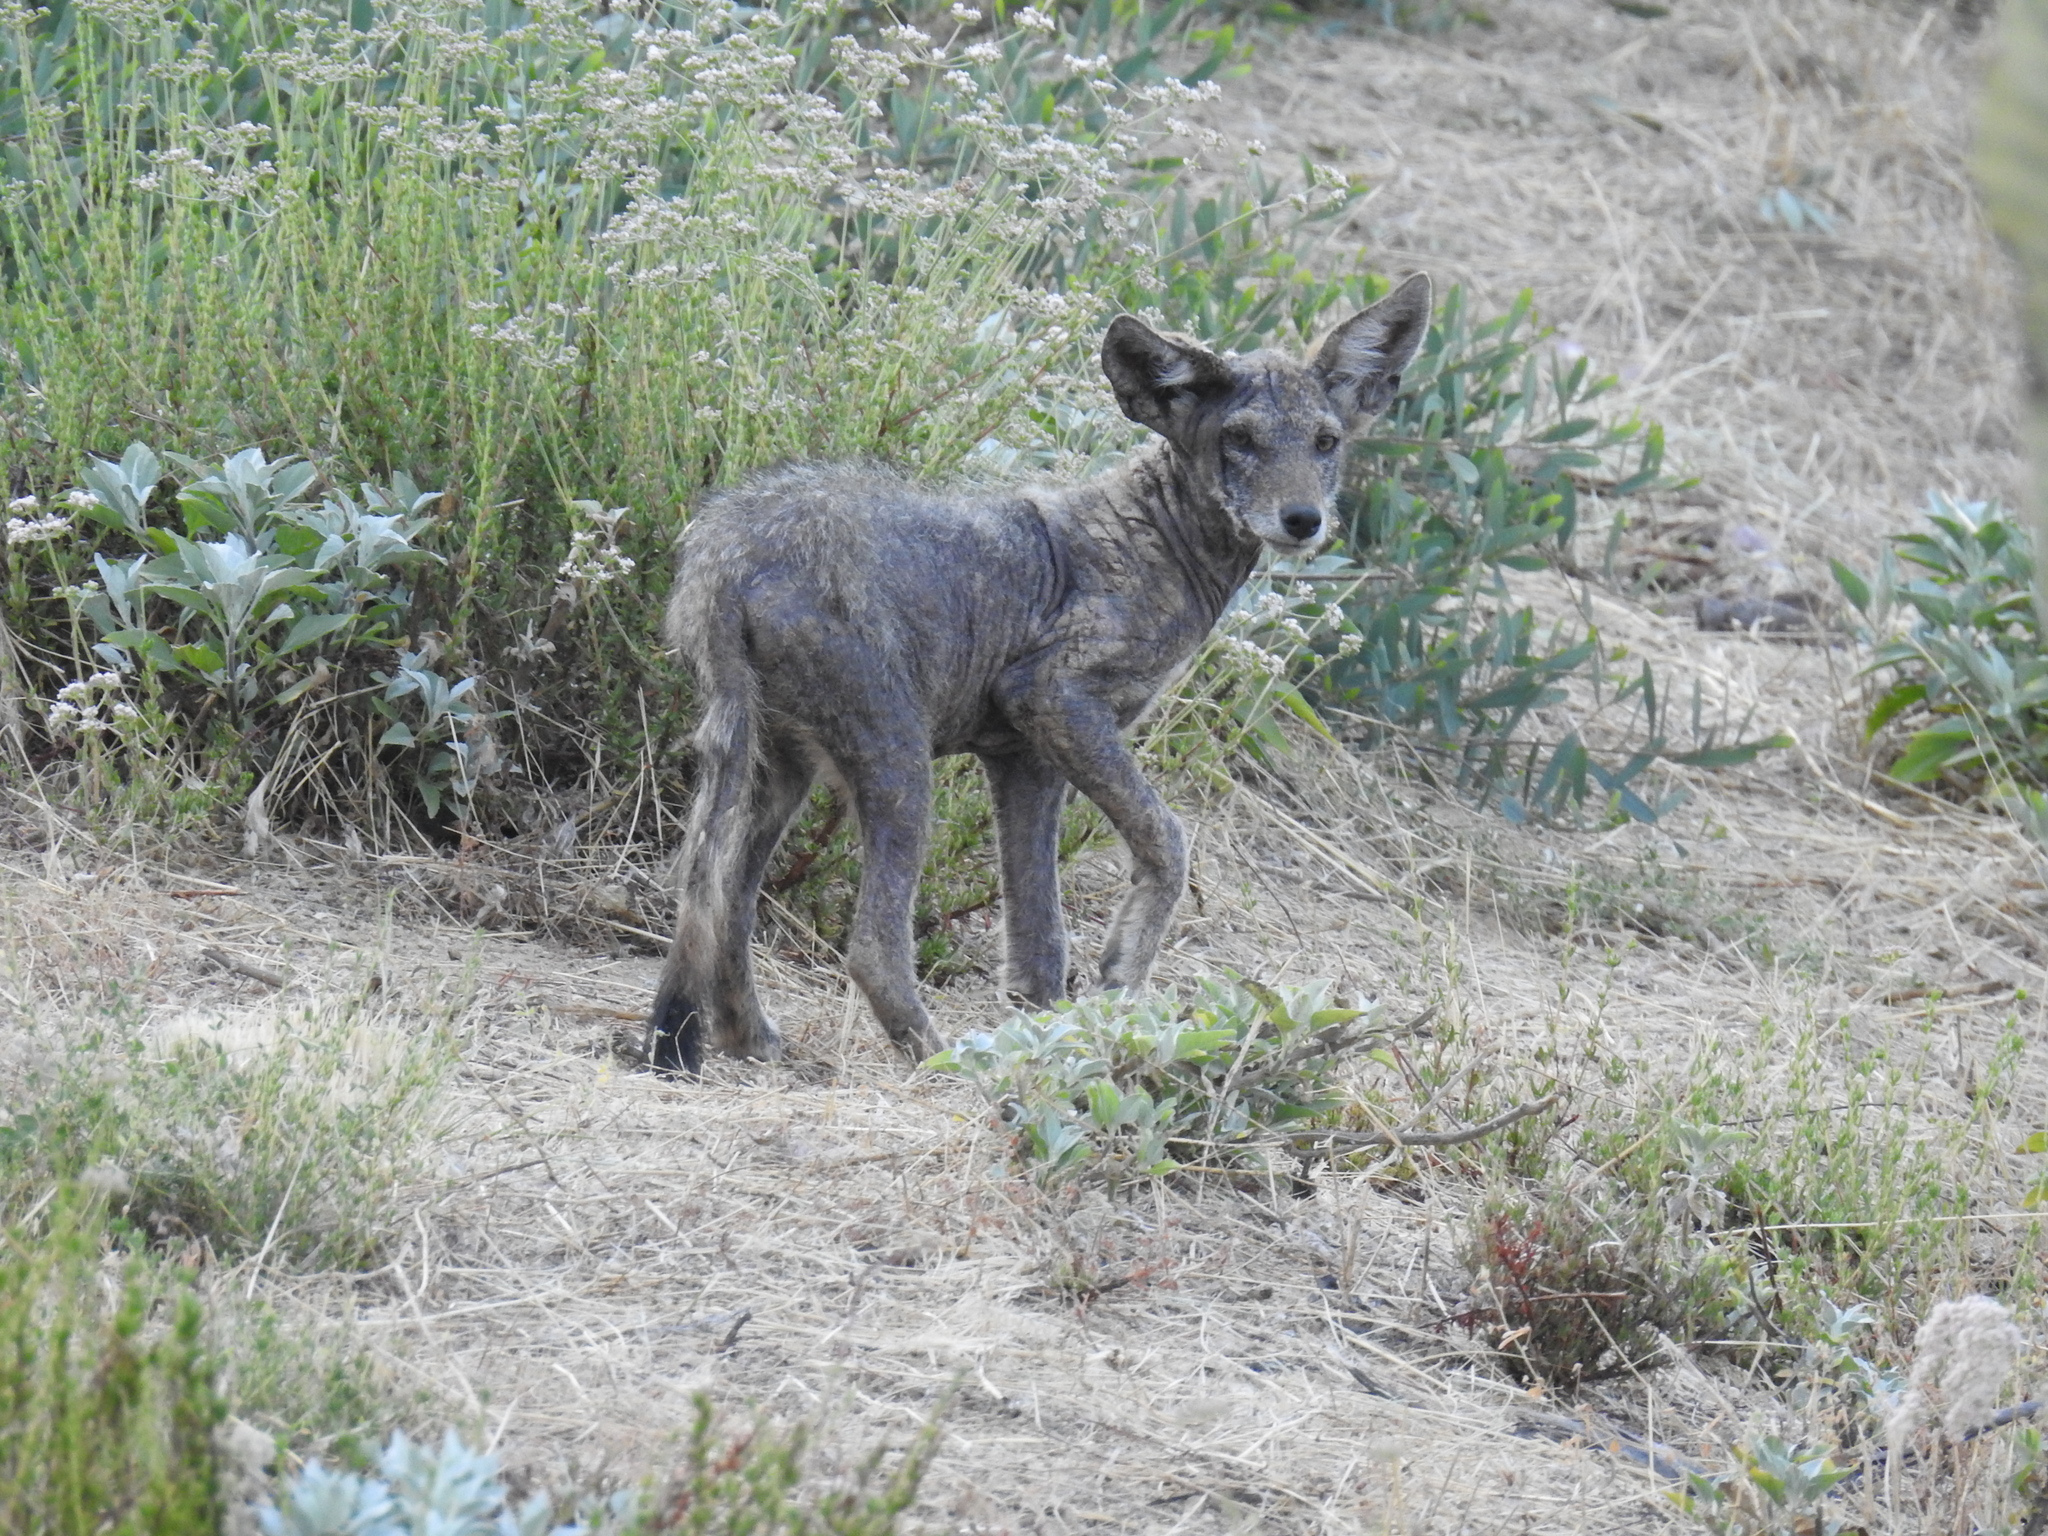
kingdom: Animalia
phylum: Chordata
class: Mammalia
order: Carnivora
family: Canidae
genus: Canis
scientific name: Canis latrans
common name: Coyote
